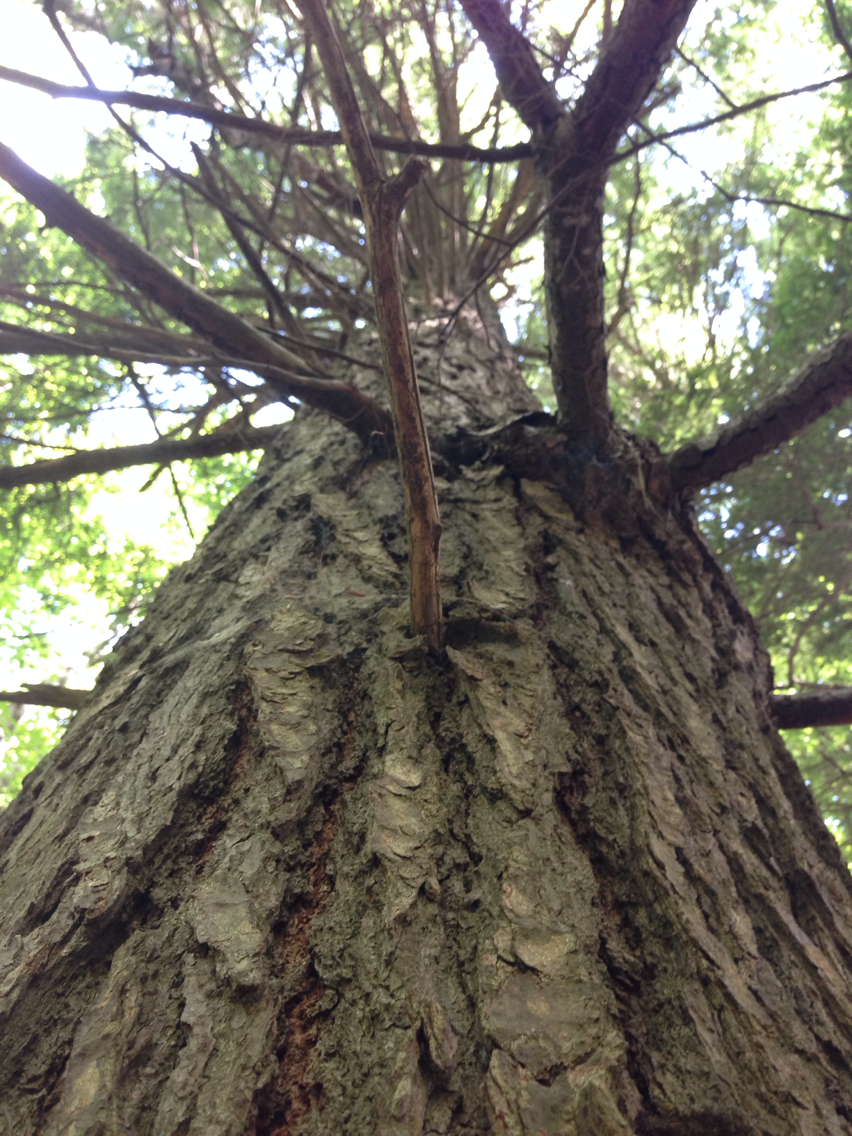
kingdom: Plantae
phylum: Tracheophyta
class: Pinopsida
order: Pinales
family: Pinaceae
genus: Tsuga
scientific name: Tsuga canadensis
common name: Eastern hemlock
